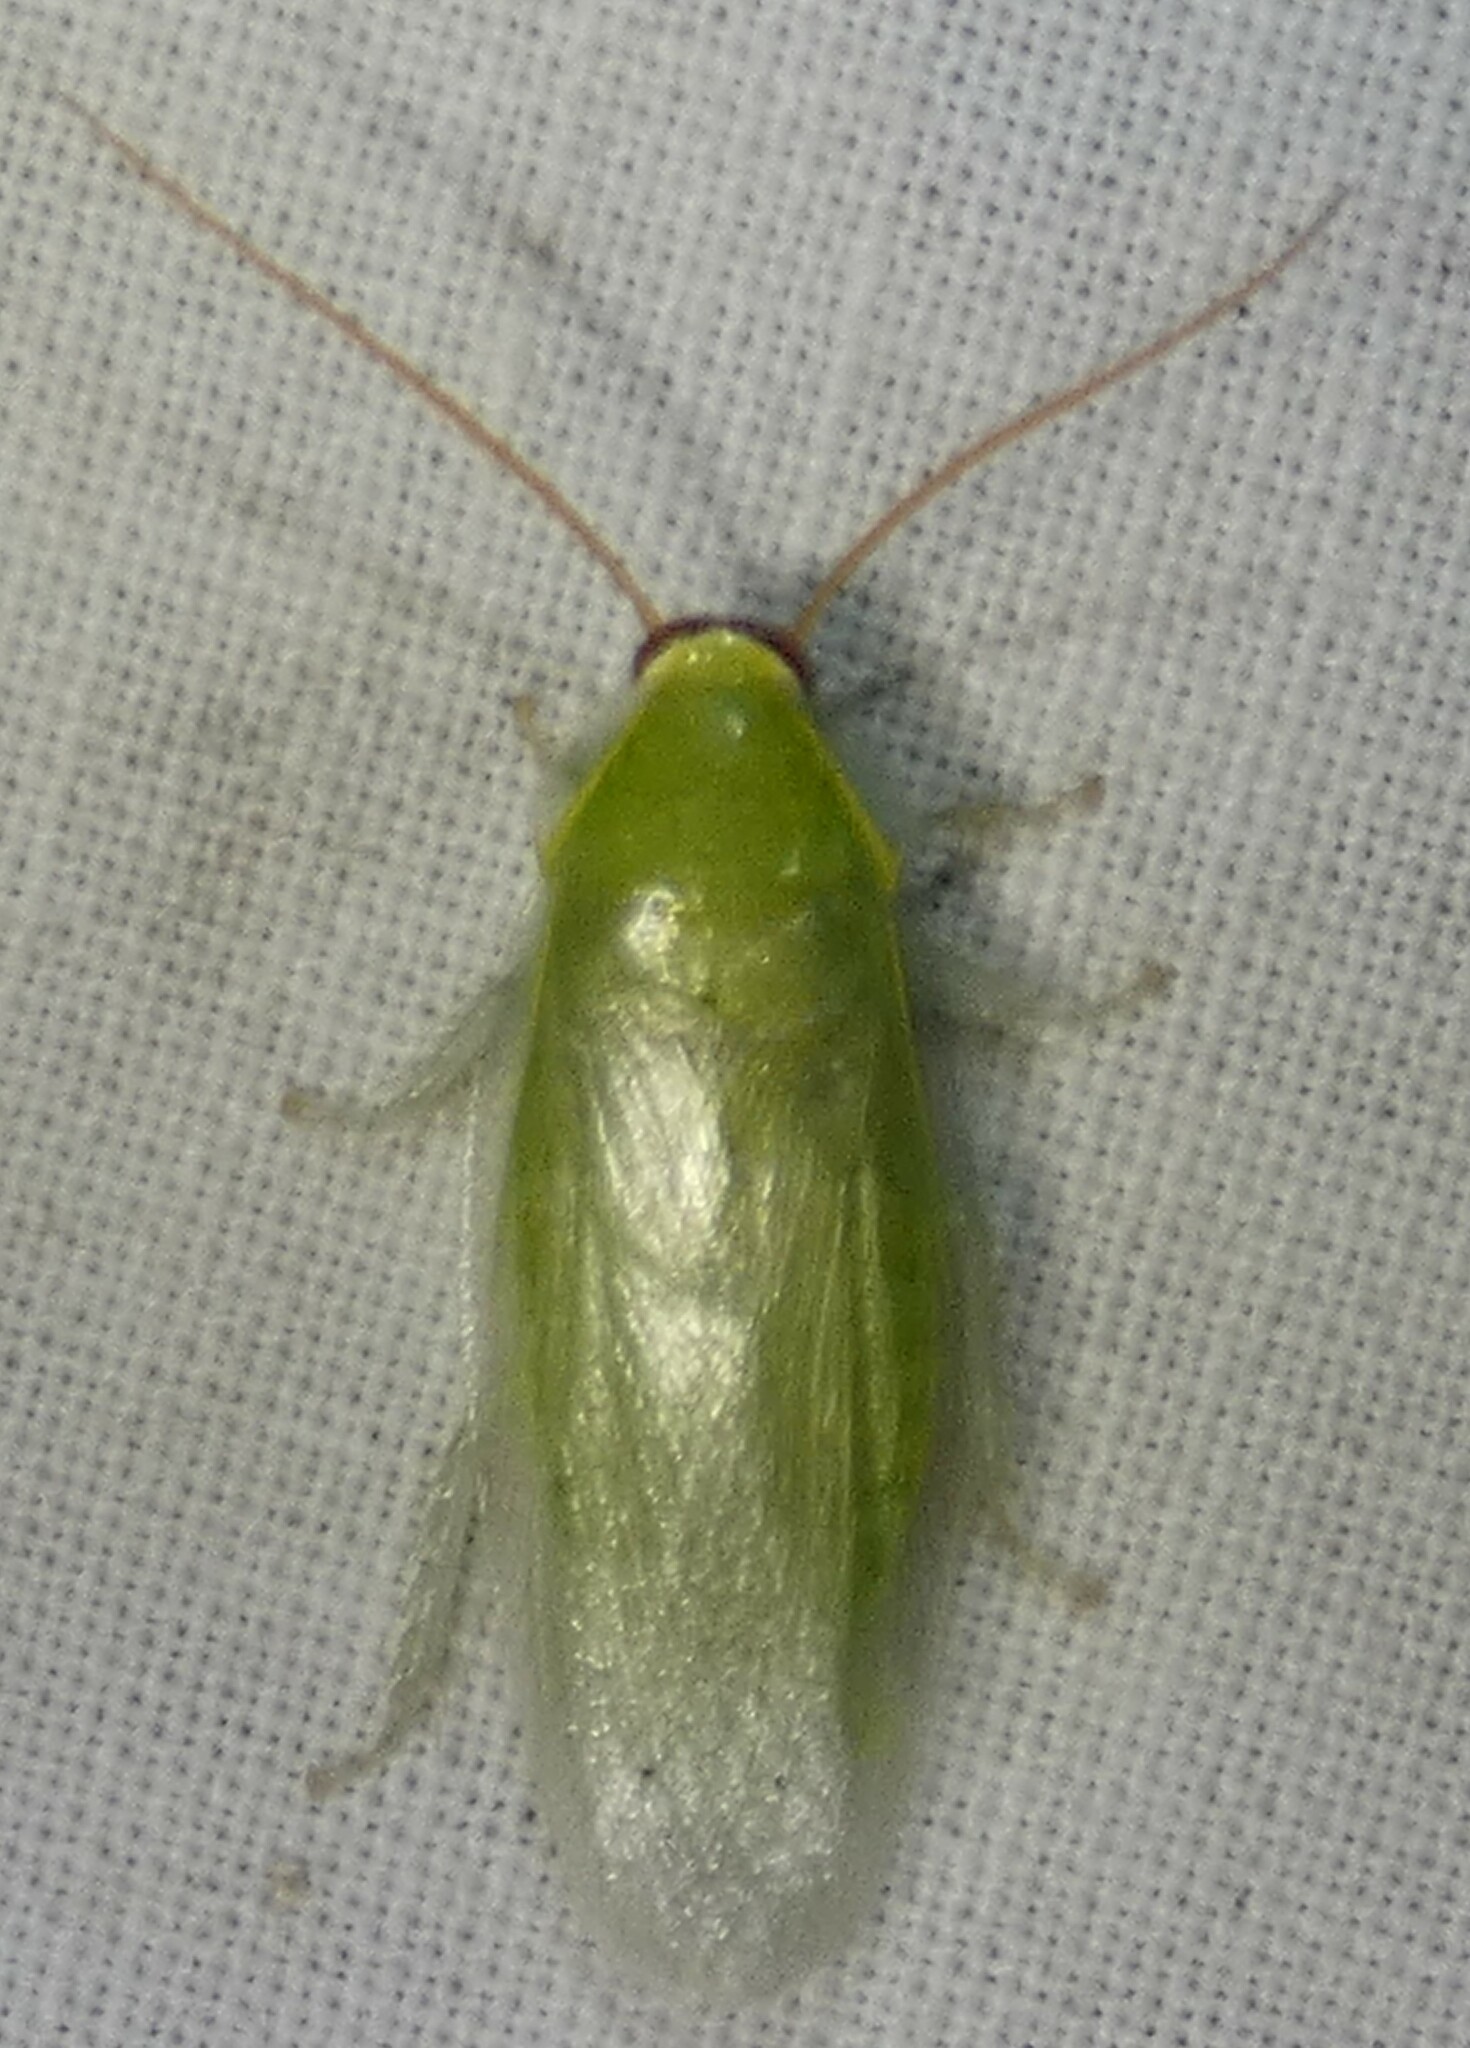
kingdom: Animalia
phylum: Arthropoda
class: Insecta
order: Blattodea
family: Blaberidae
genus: Panchlora
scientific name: Panchlora nivea
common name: Cuban cockroach
